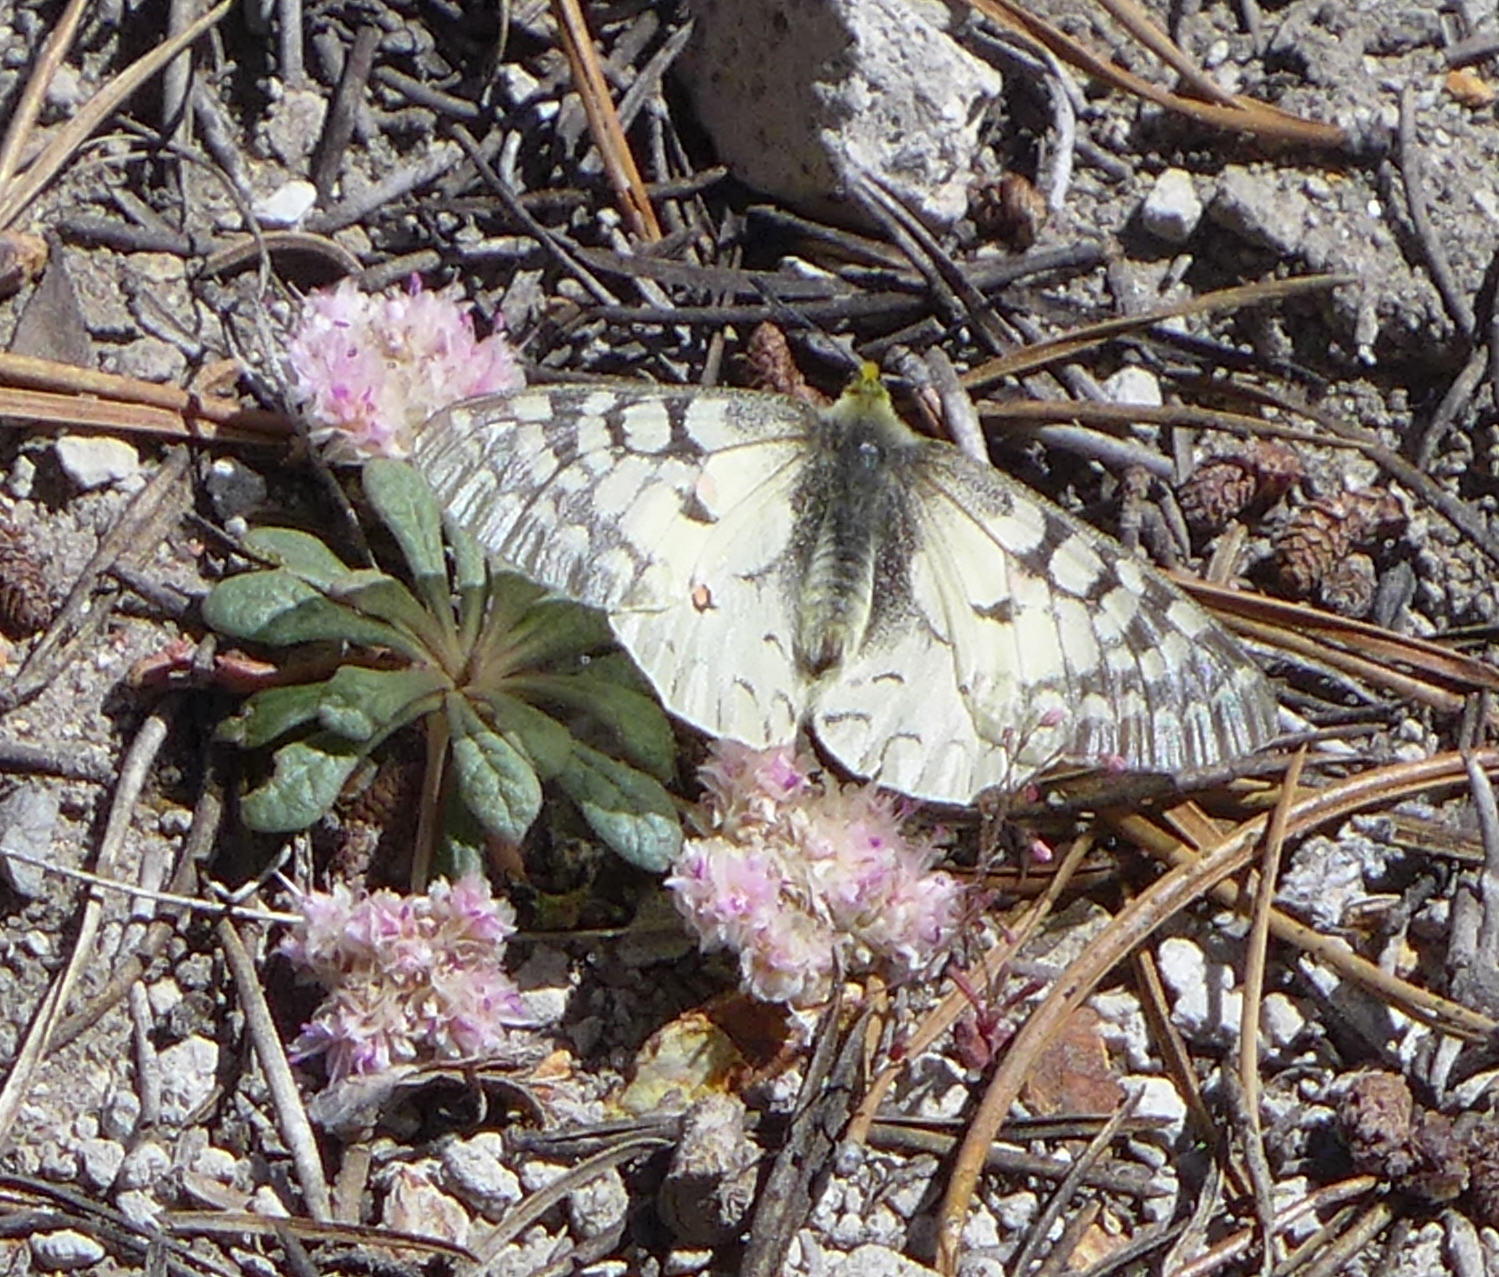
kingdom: Animalia
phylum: Arthropoda
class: Insecta
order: Lepidoptera
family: Papilionidae
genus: Parnassius
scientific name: Parnassius clodius
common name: American apollo
